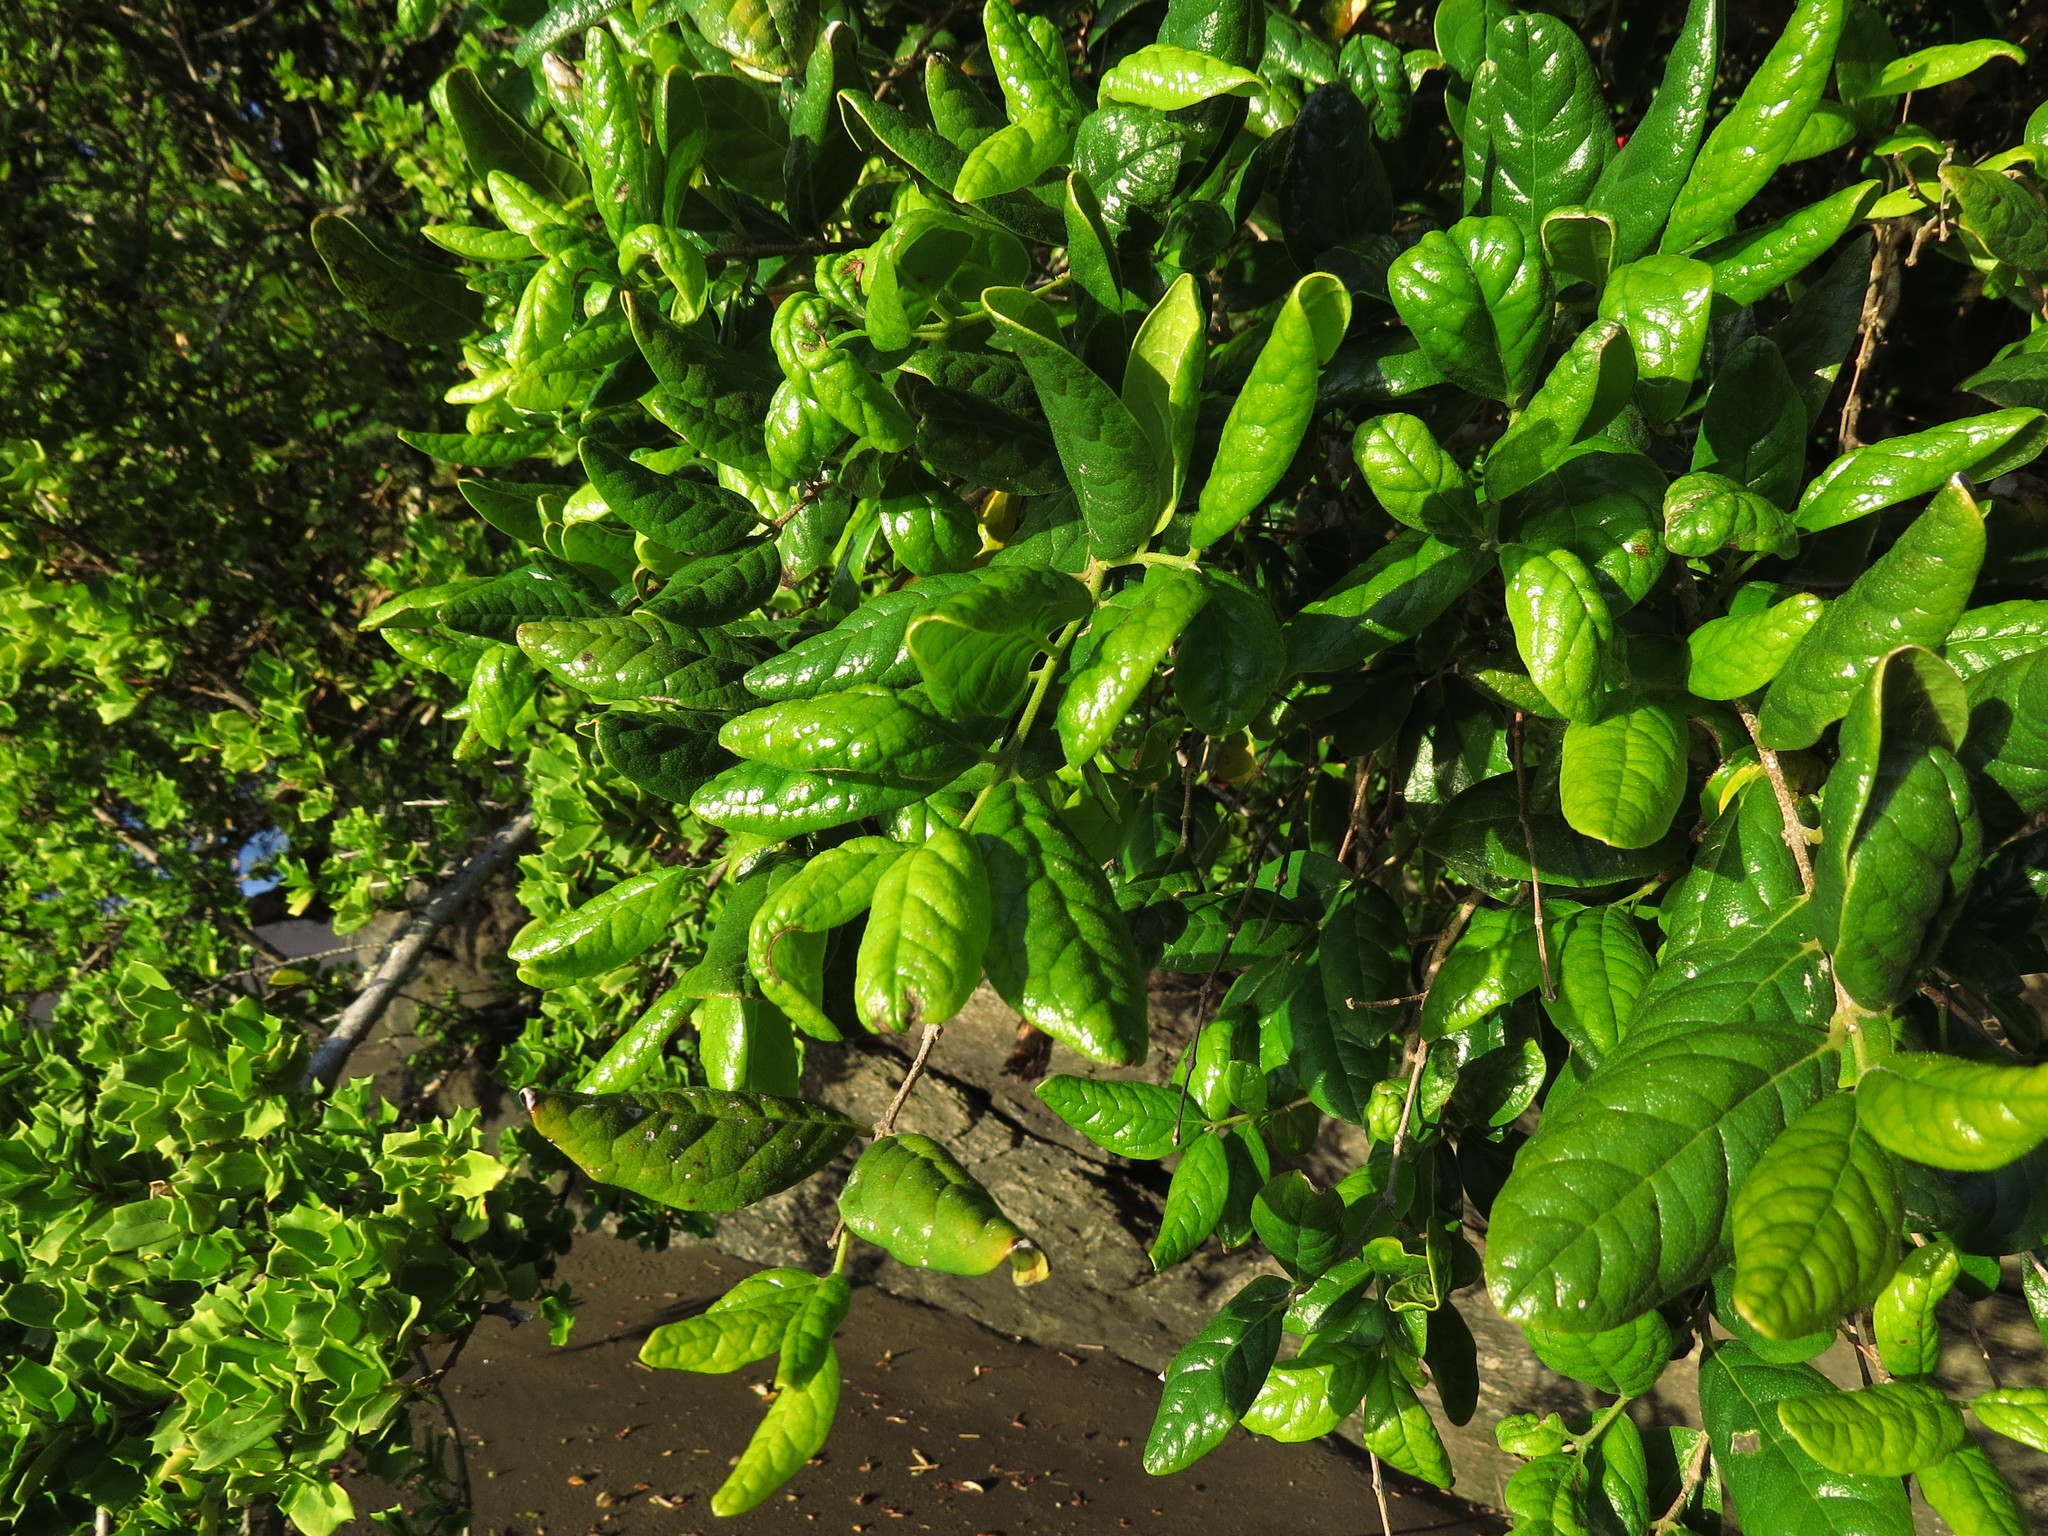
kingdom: Plantae
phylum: Tracheophyta
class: Magnoliopsida
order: Laurales
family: Monimiaceae
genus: Peumus
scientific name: Peumus boldus
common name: Boldo
